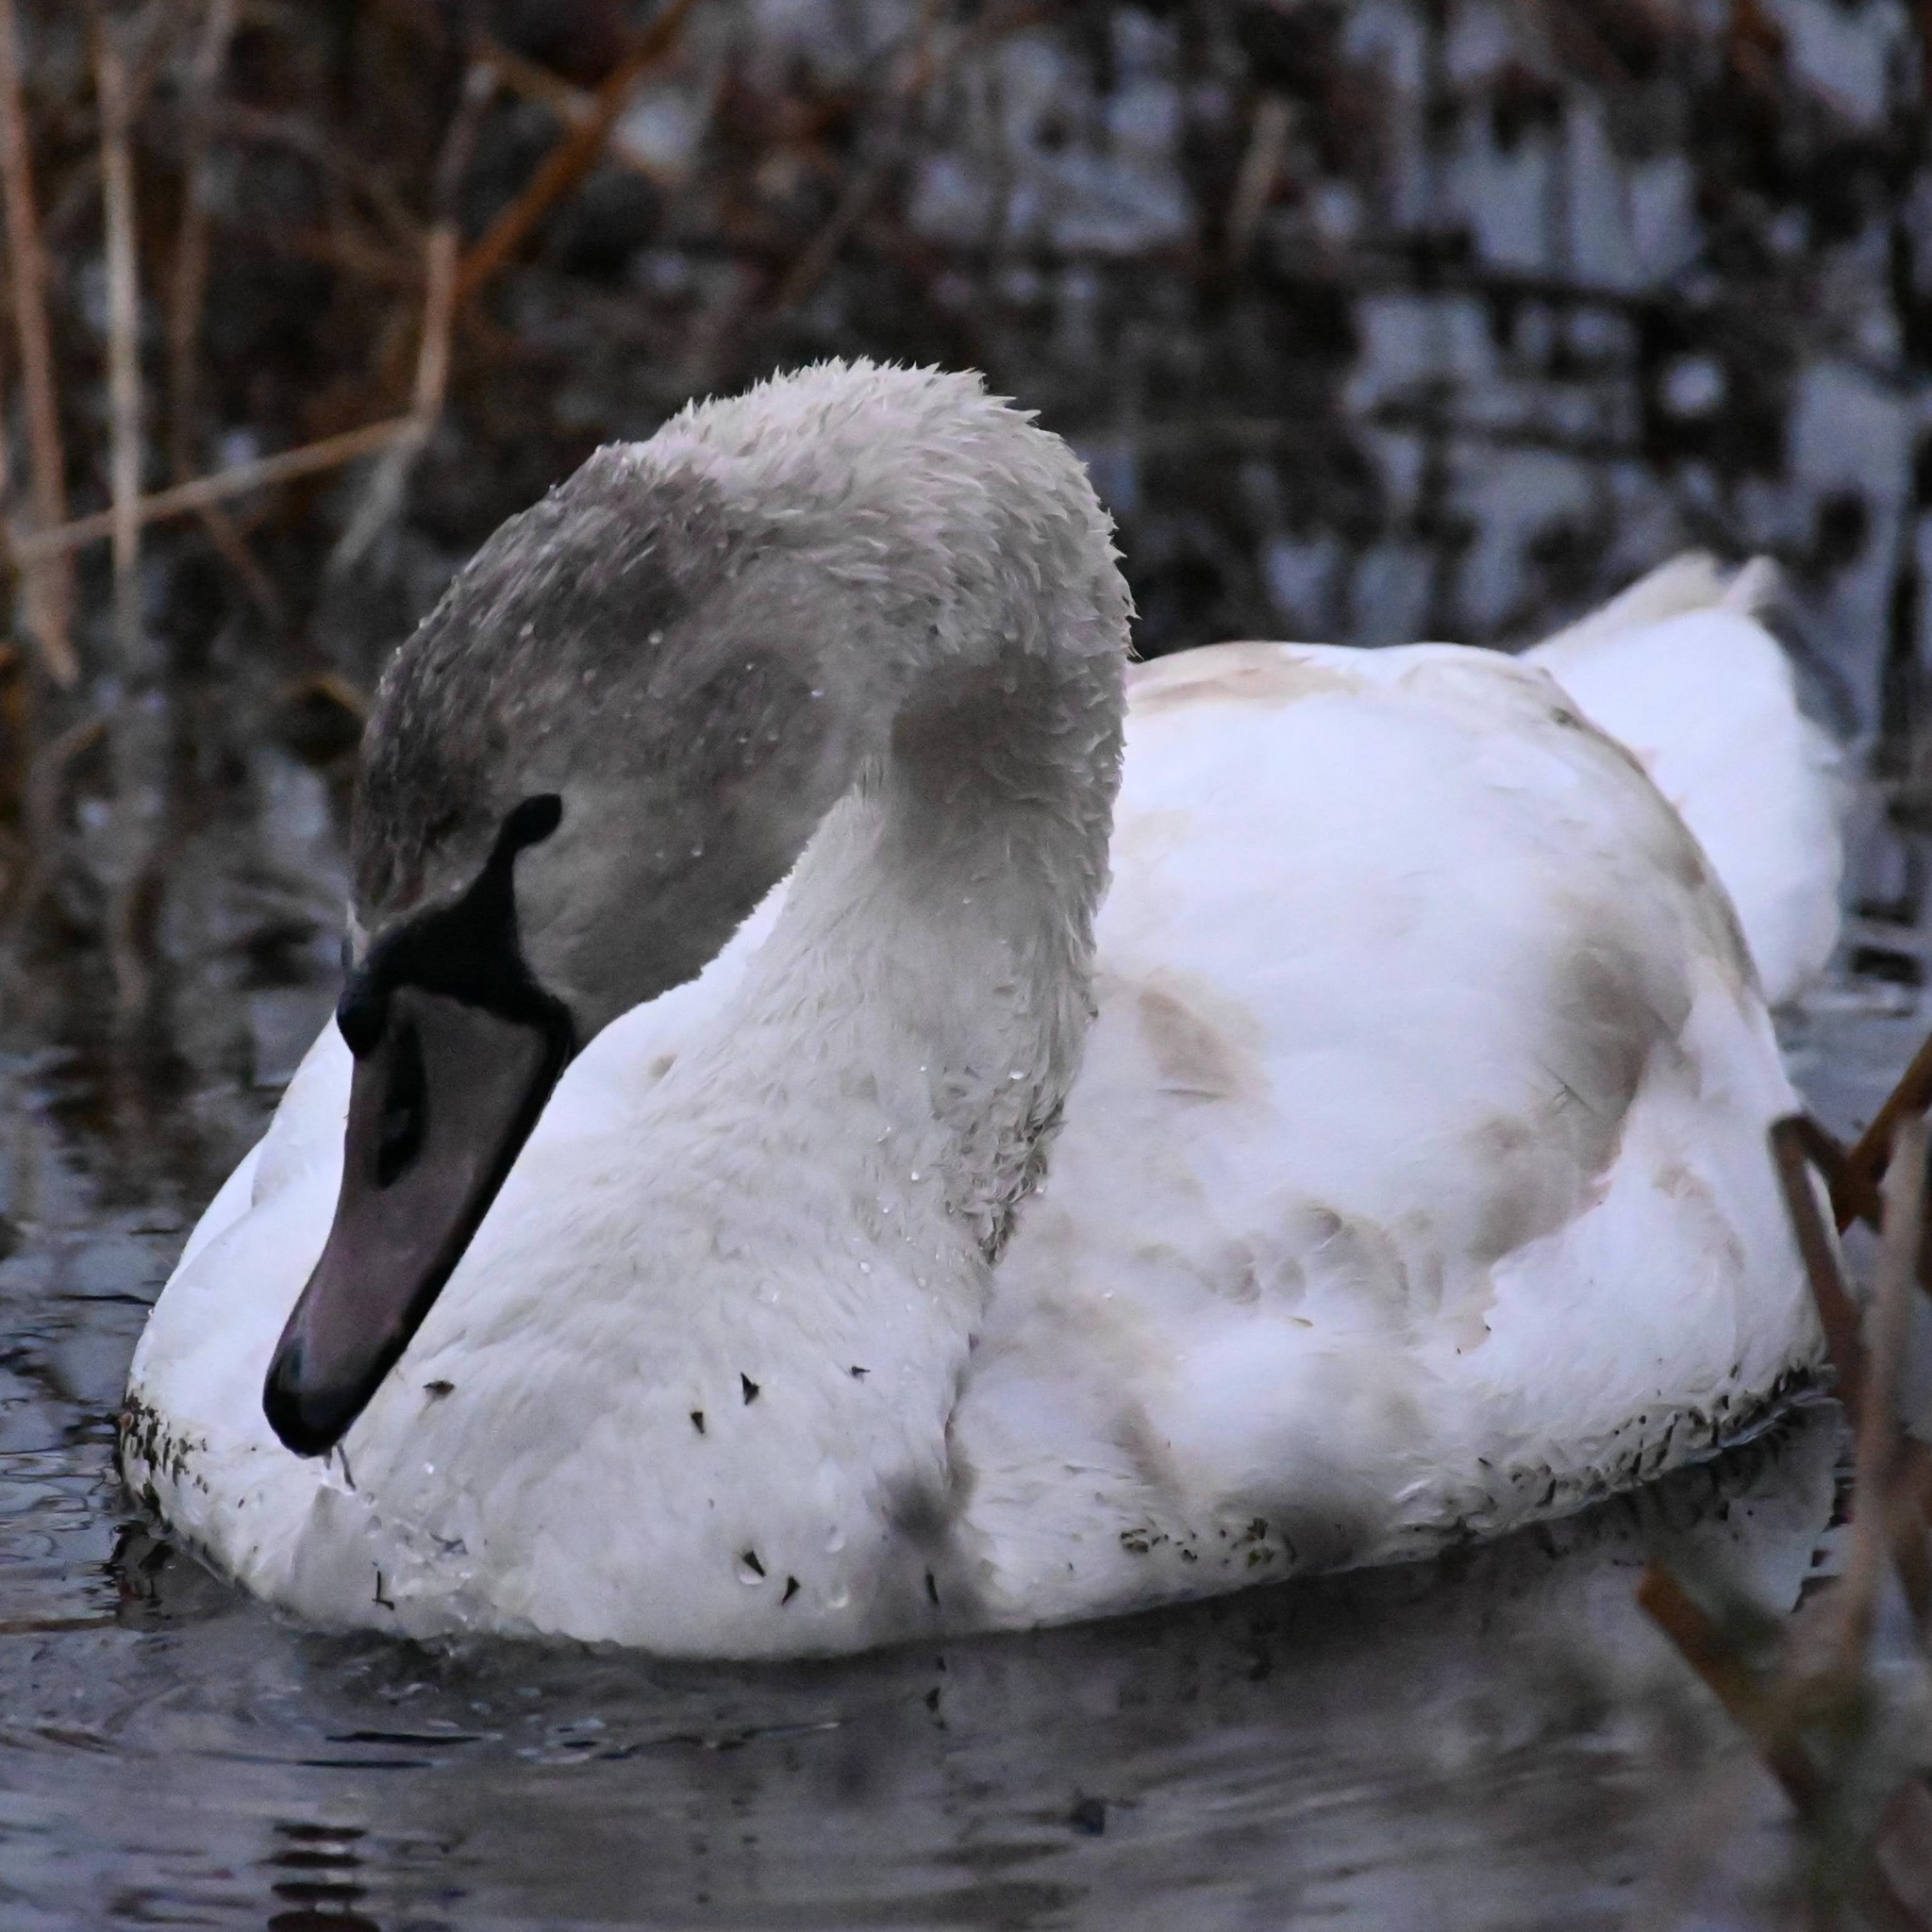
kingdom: Animalia
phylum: Chordata
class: Aves
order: Anseriformes
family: Anatidae
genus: Cygnus
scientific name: Cygnus olor
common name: Mute swan
